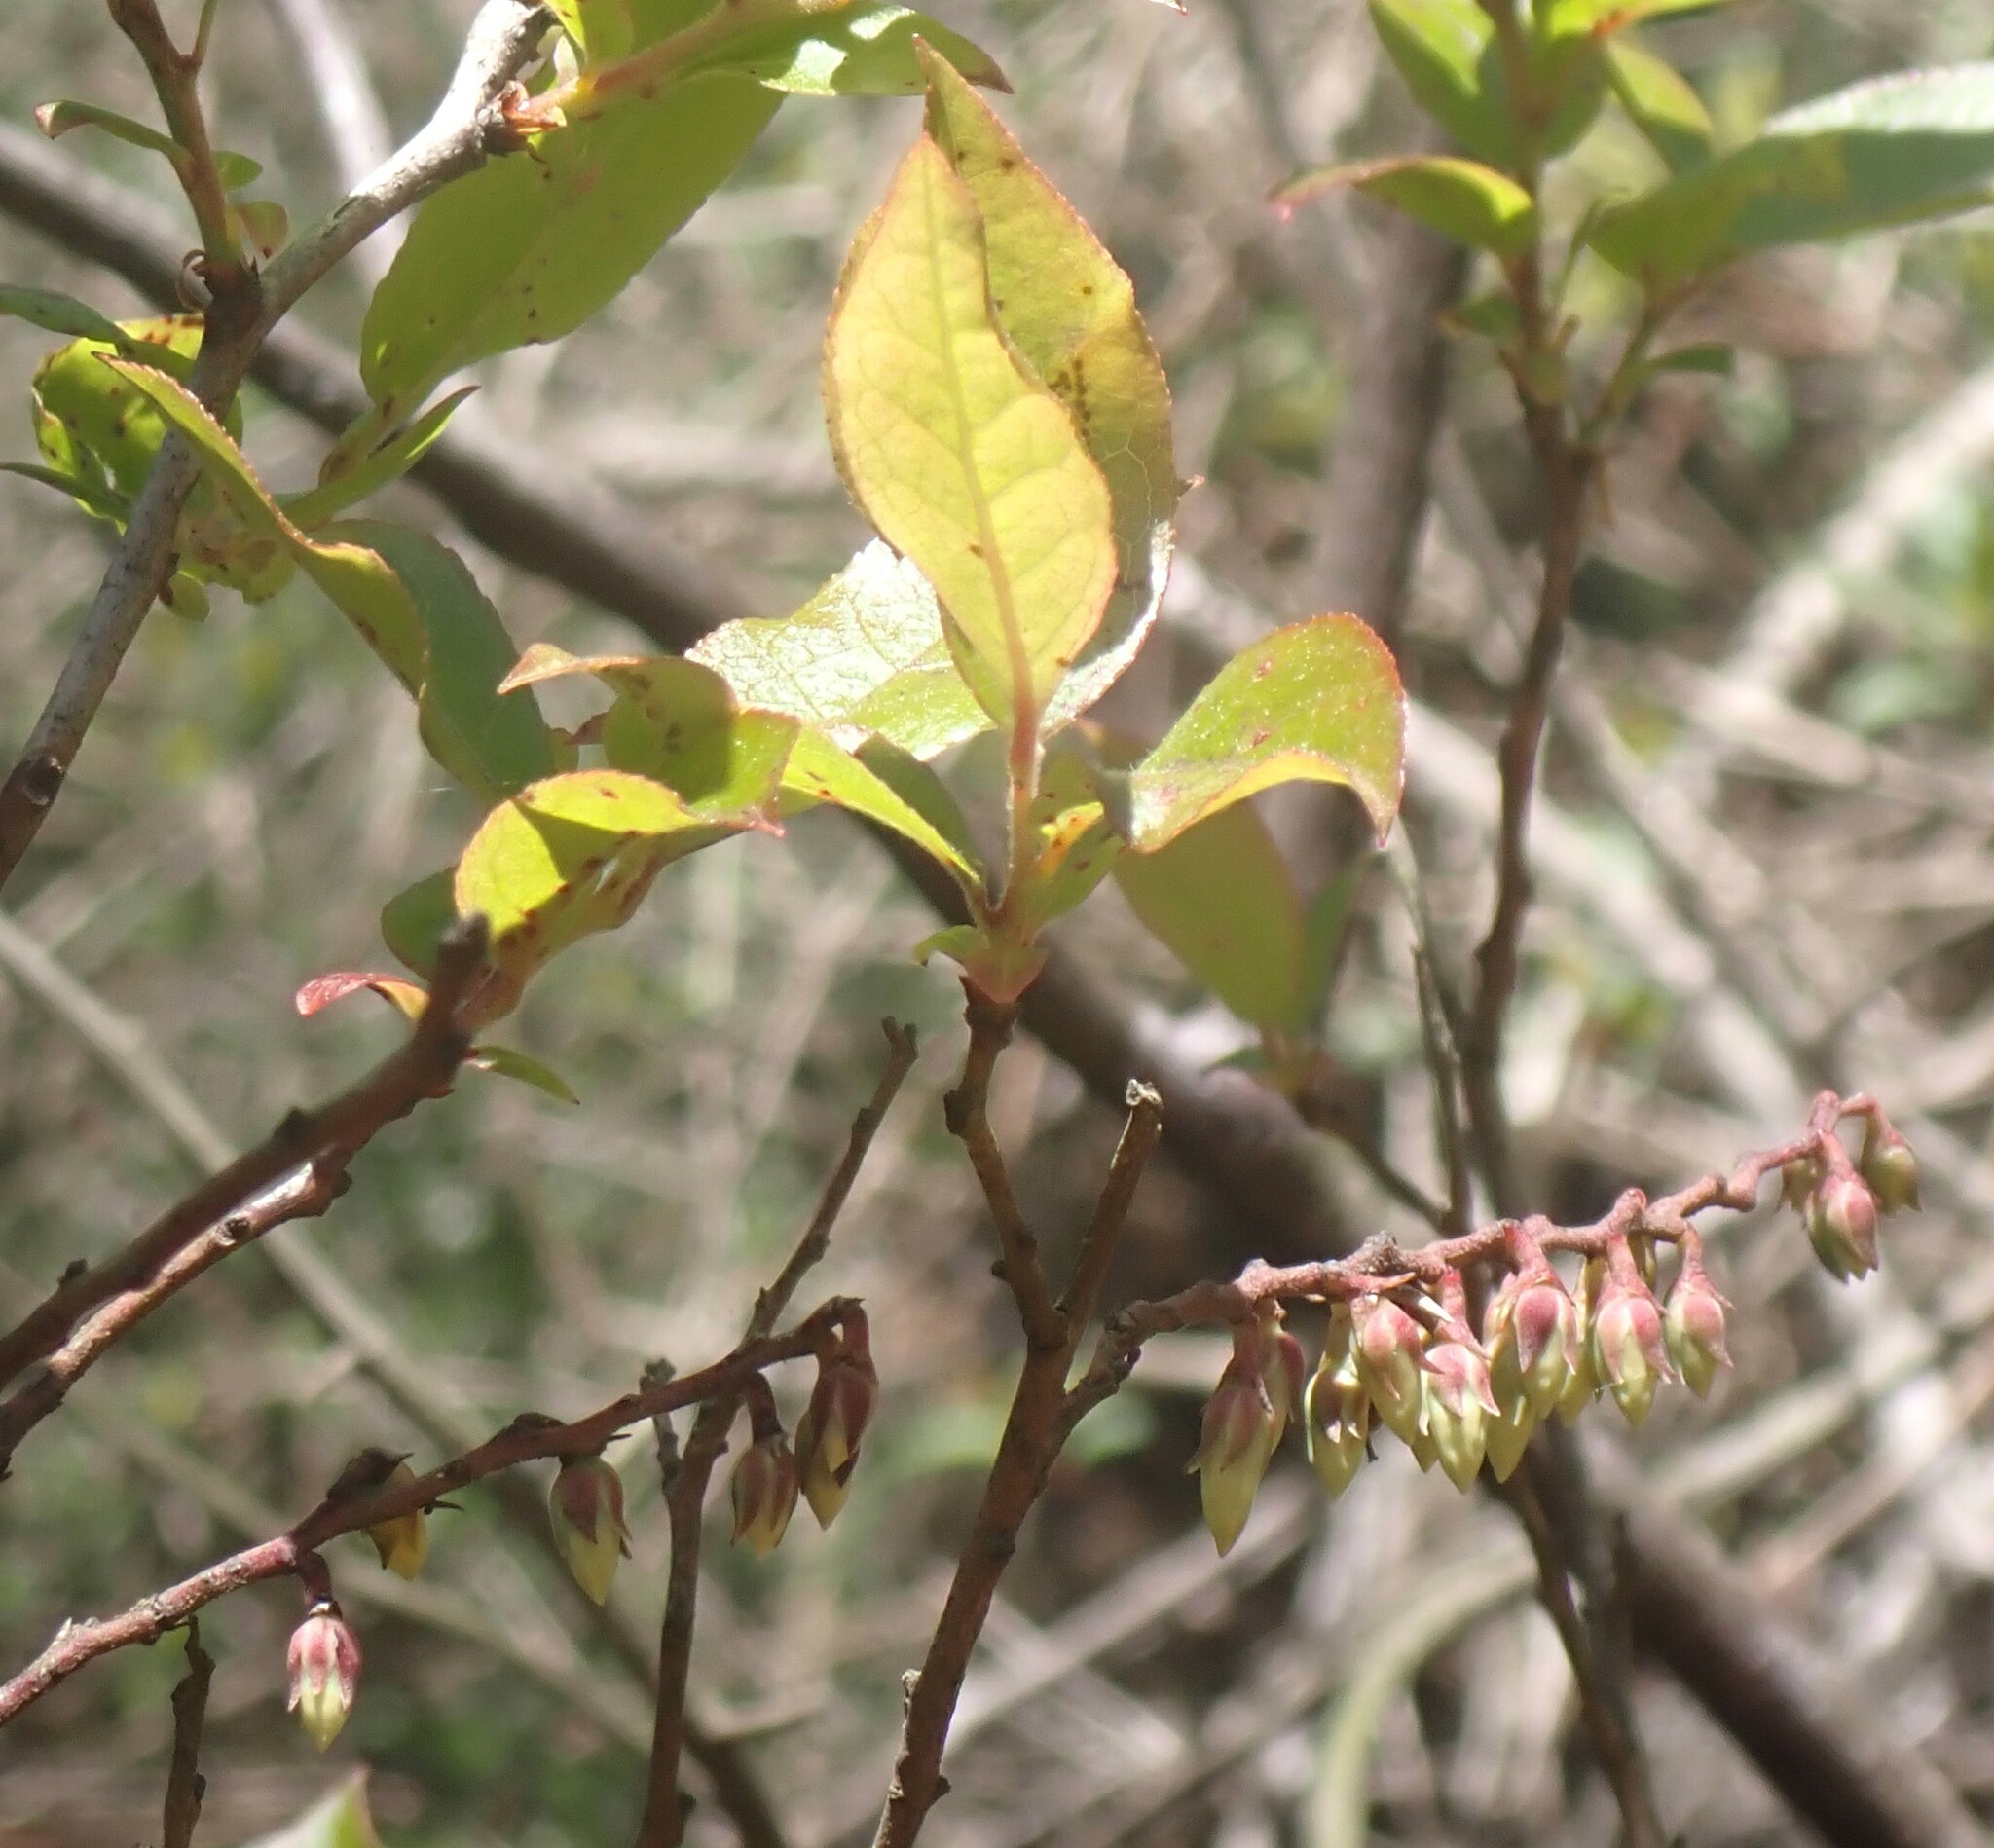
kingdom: Plantae
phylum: Tracheophyta
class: Magnoliopsida
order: Ericales
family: Ericaceae
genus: Eubotrys
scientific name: Eubotrys racemosa
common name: Fetterbush
